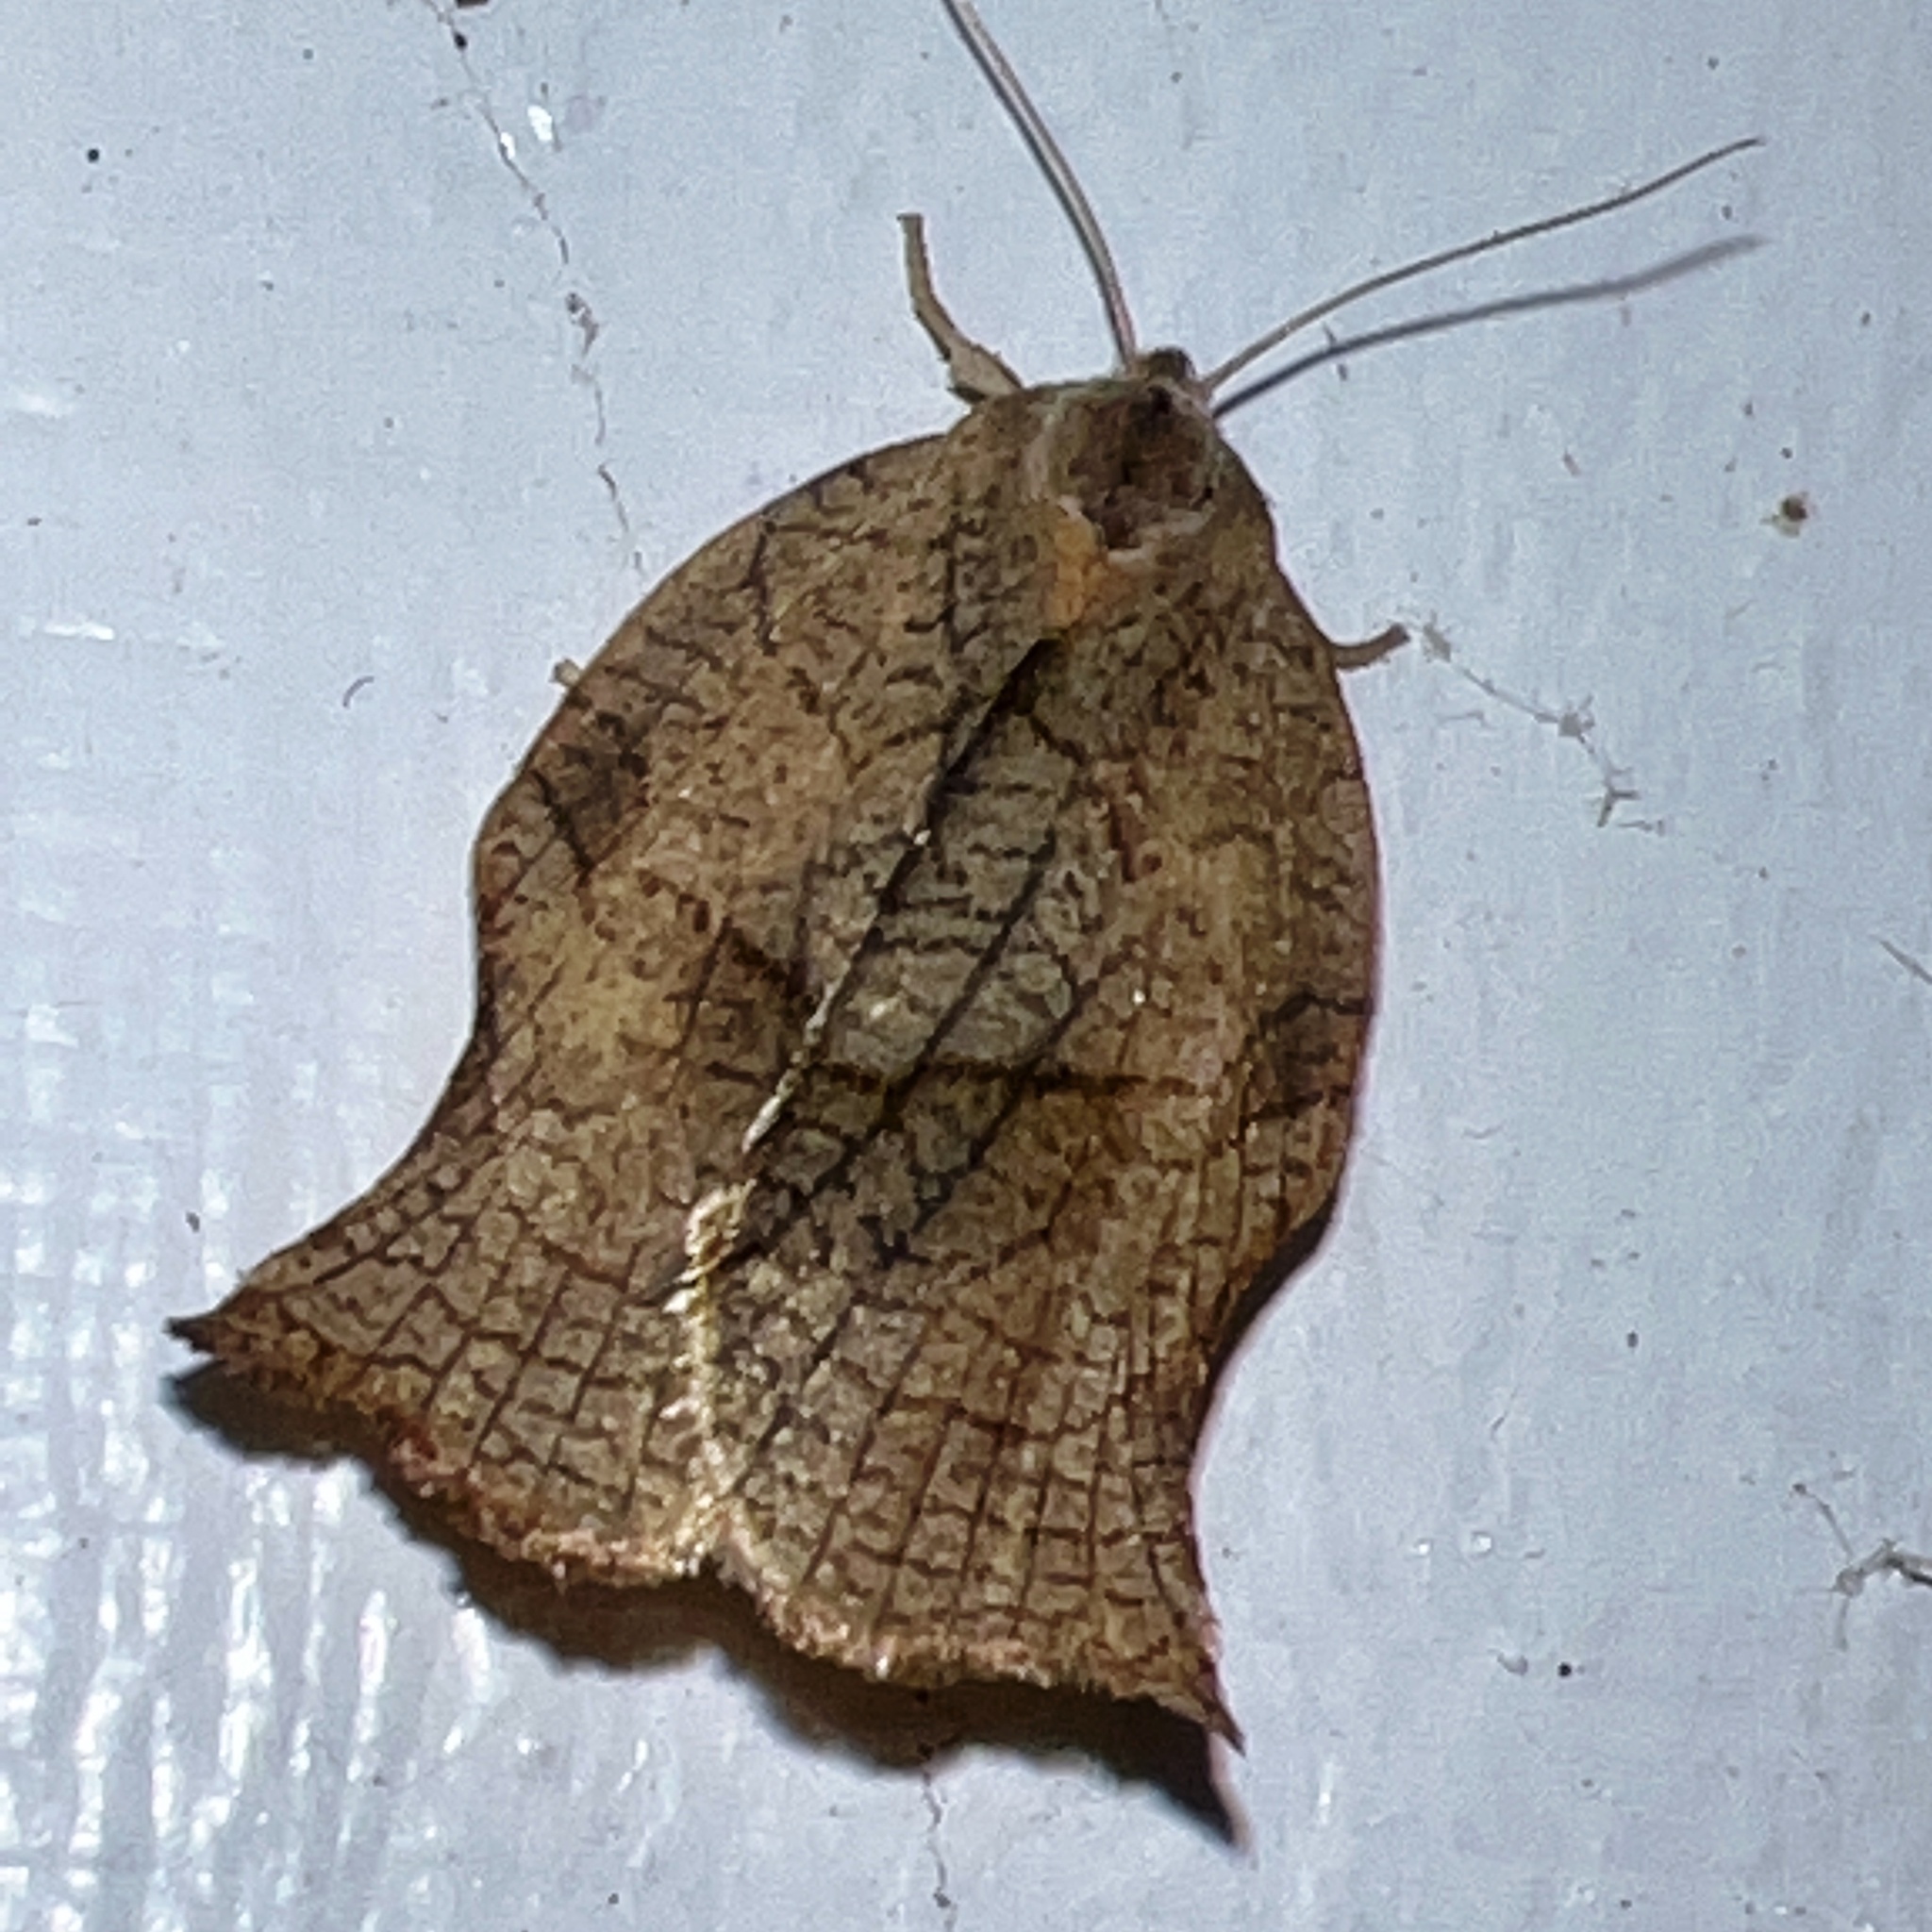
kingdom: Animalia
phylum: Arthropoda
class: Insecta
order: Lepidoptera
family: Tortricidae
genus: Archips
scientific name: Archips purpurana
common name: Omnivorous leafroller
